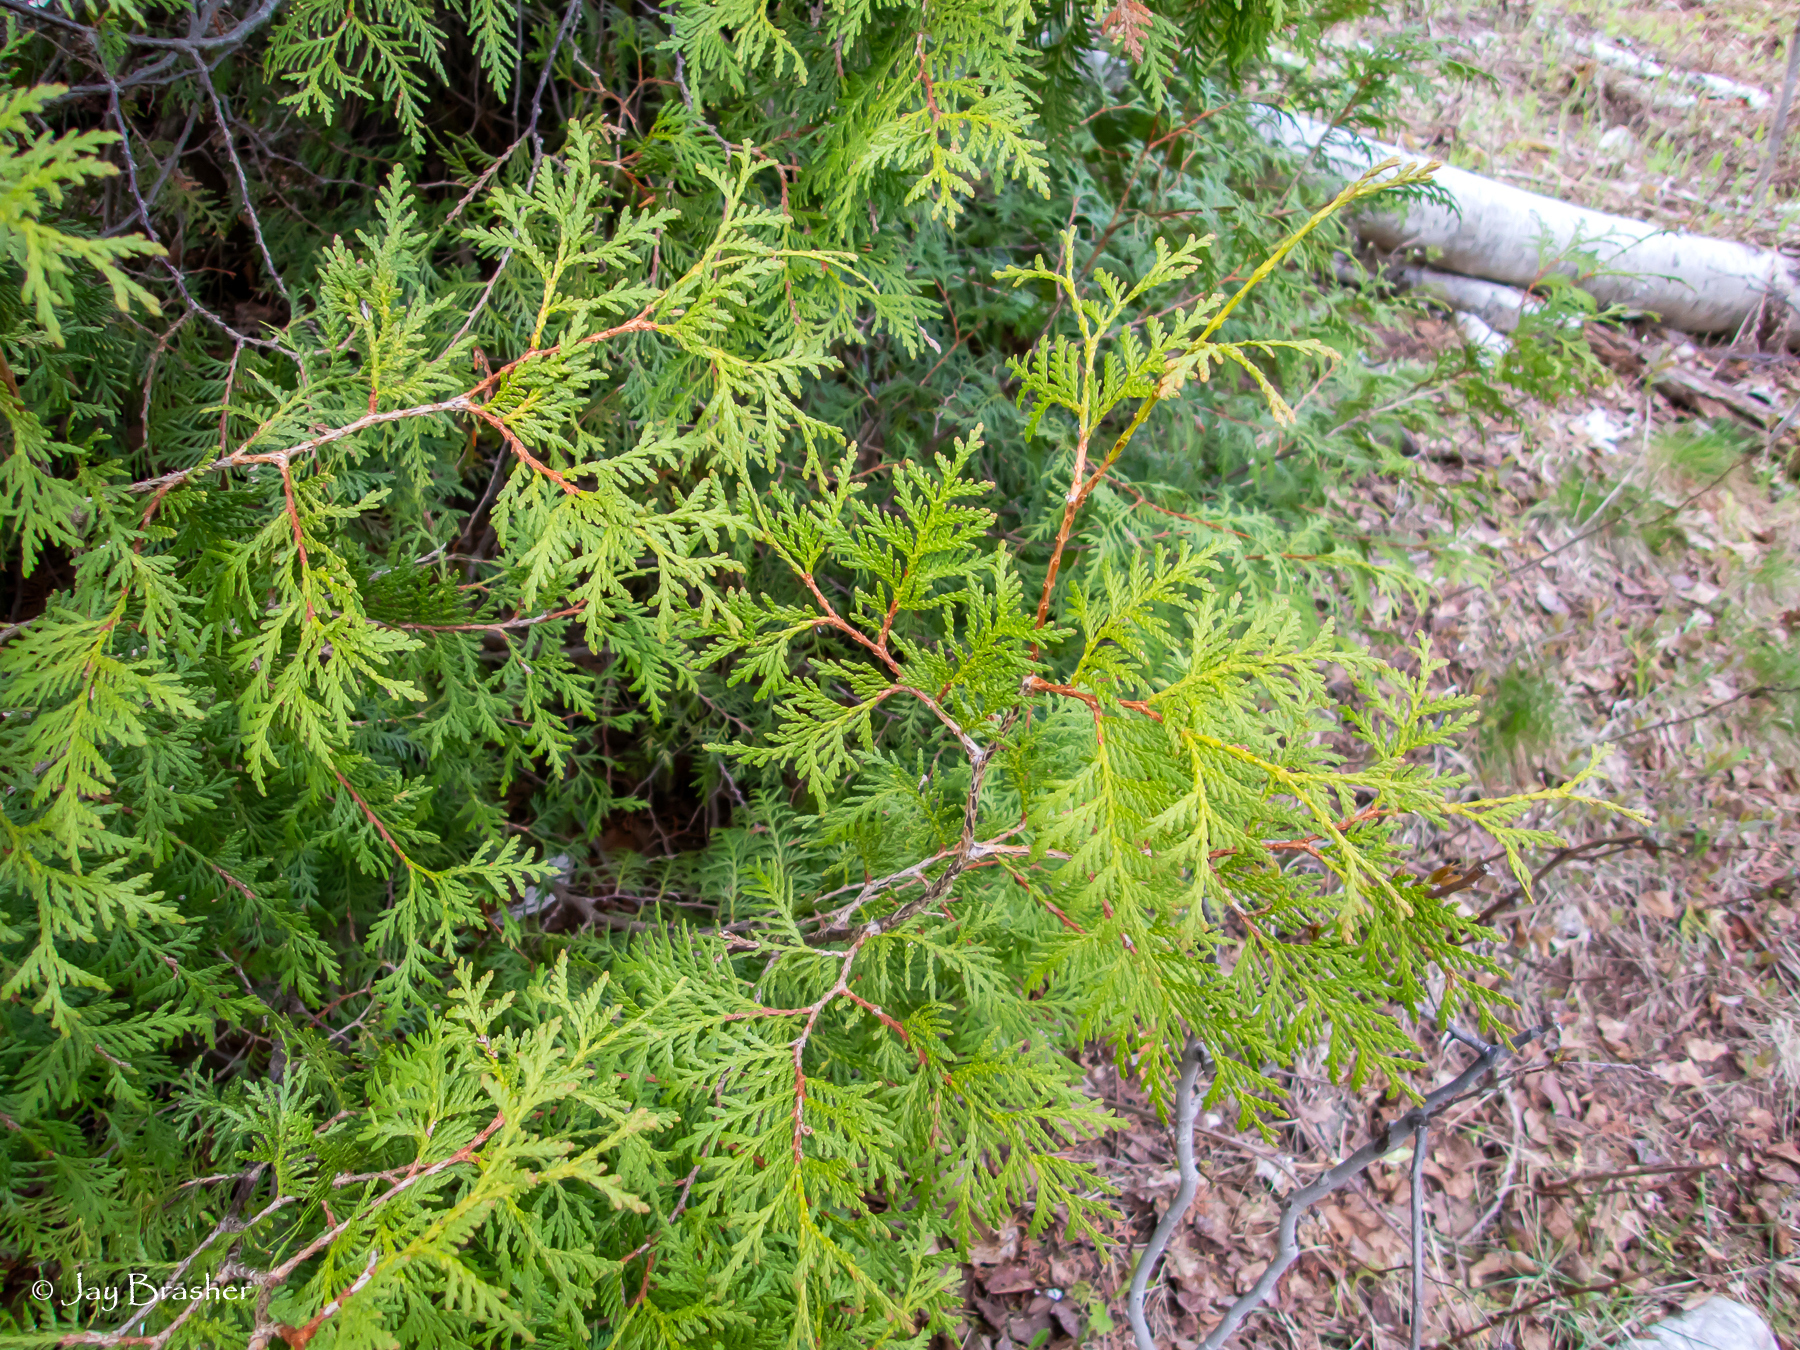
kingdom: Plantae
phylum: Tracheophyta
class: Pinopsida
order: Pinales
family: Cupressaceae
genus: Thuja
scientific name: Thuja occidentalis
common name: Northern white-cedar
